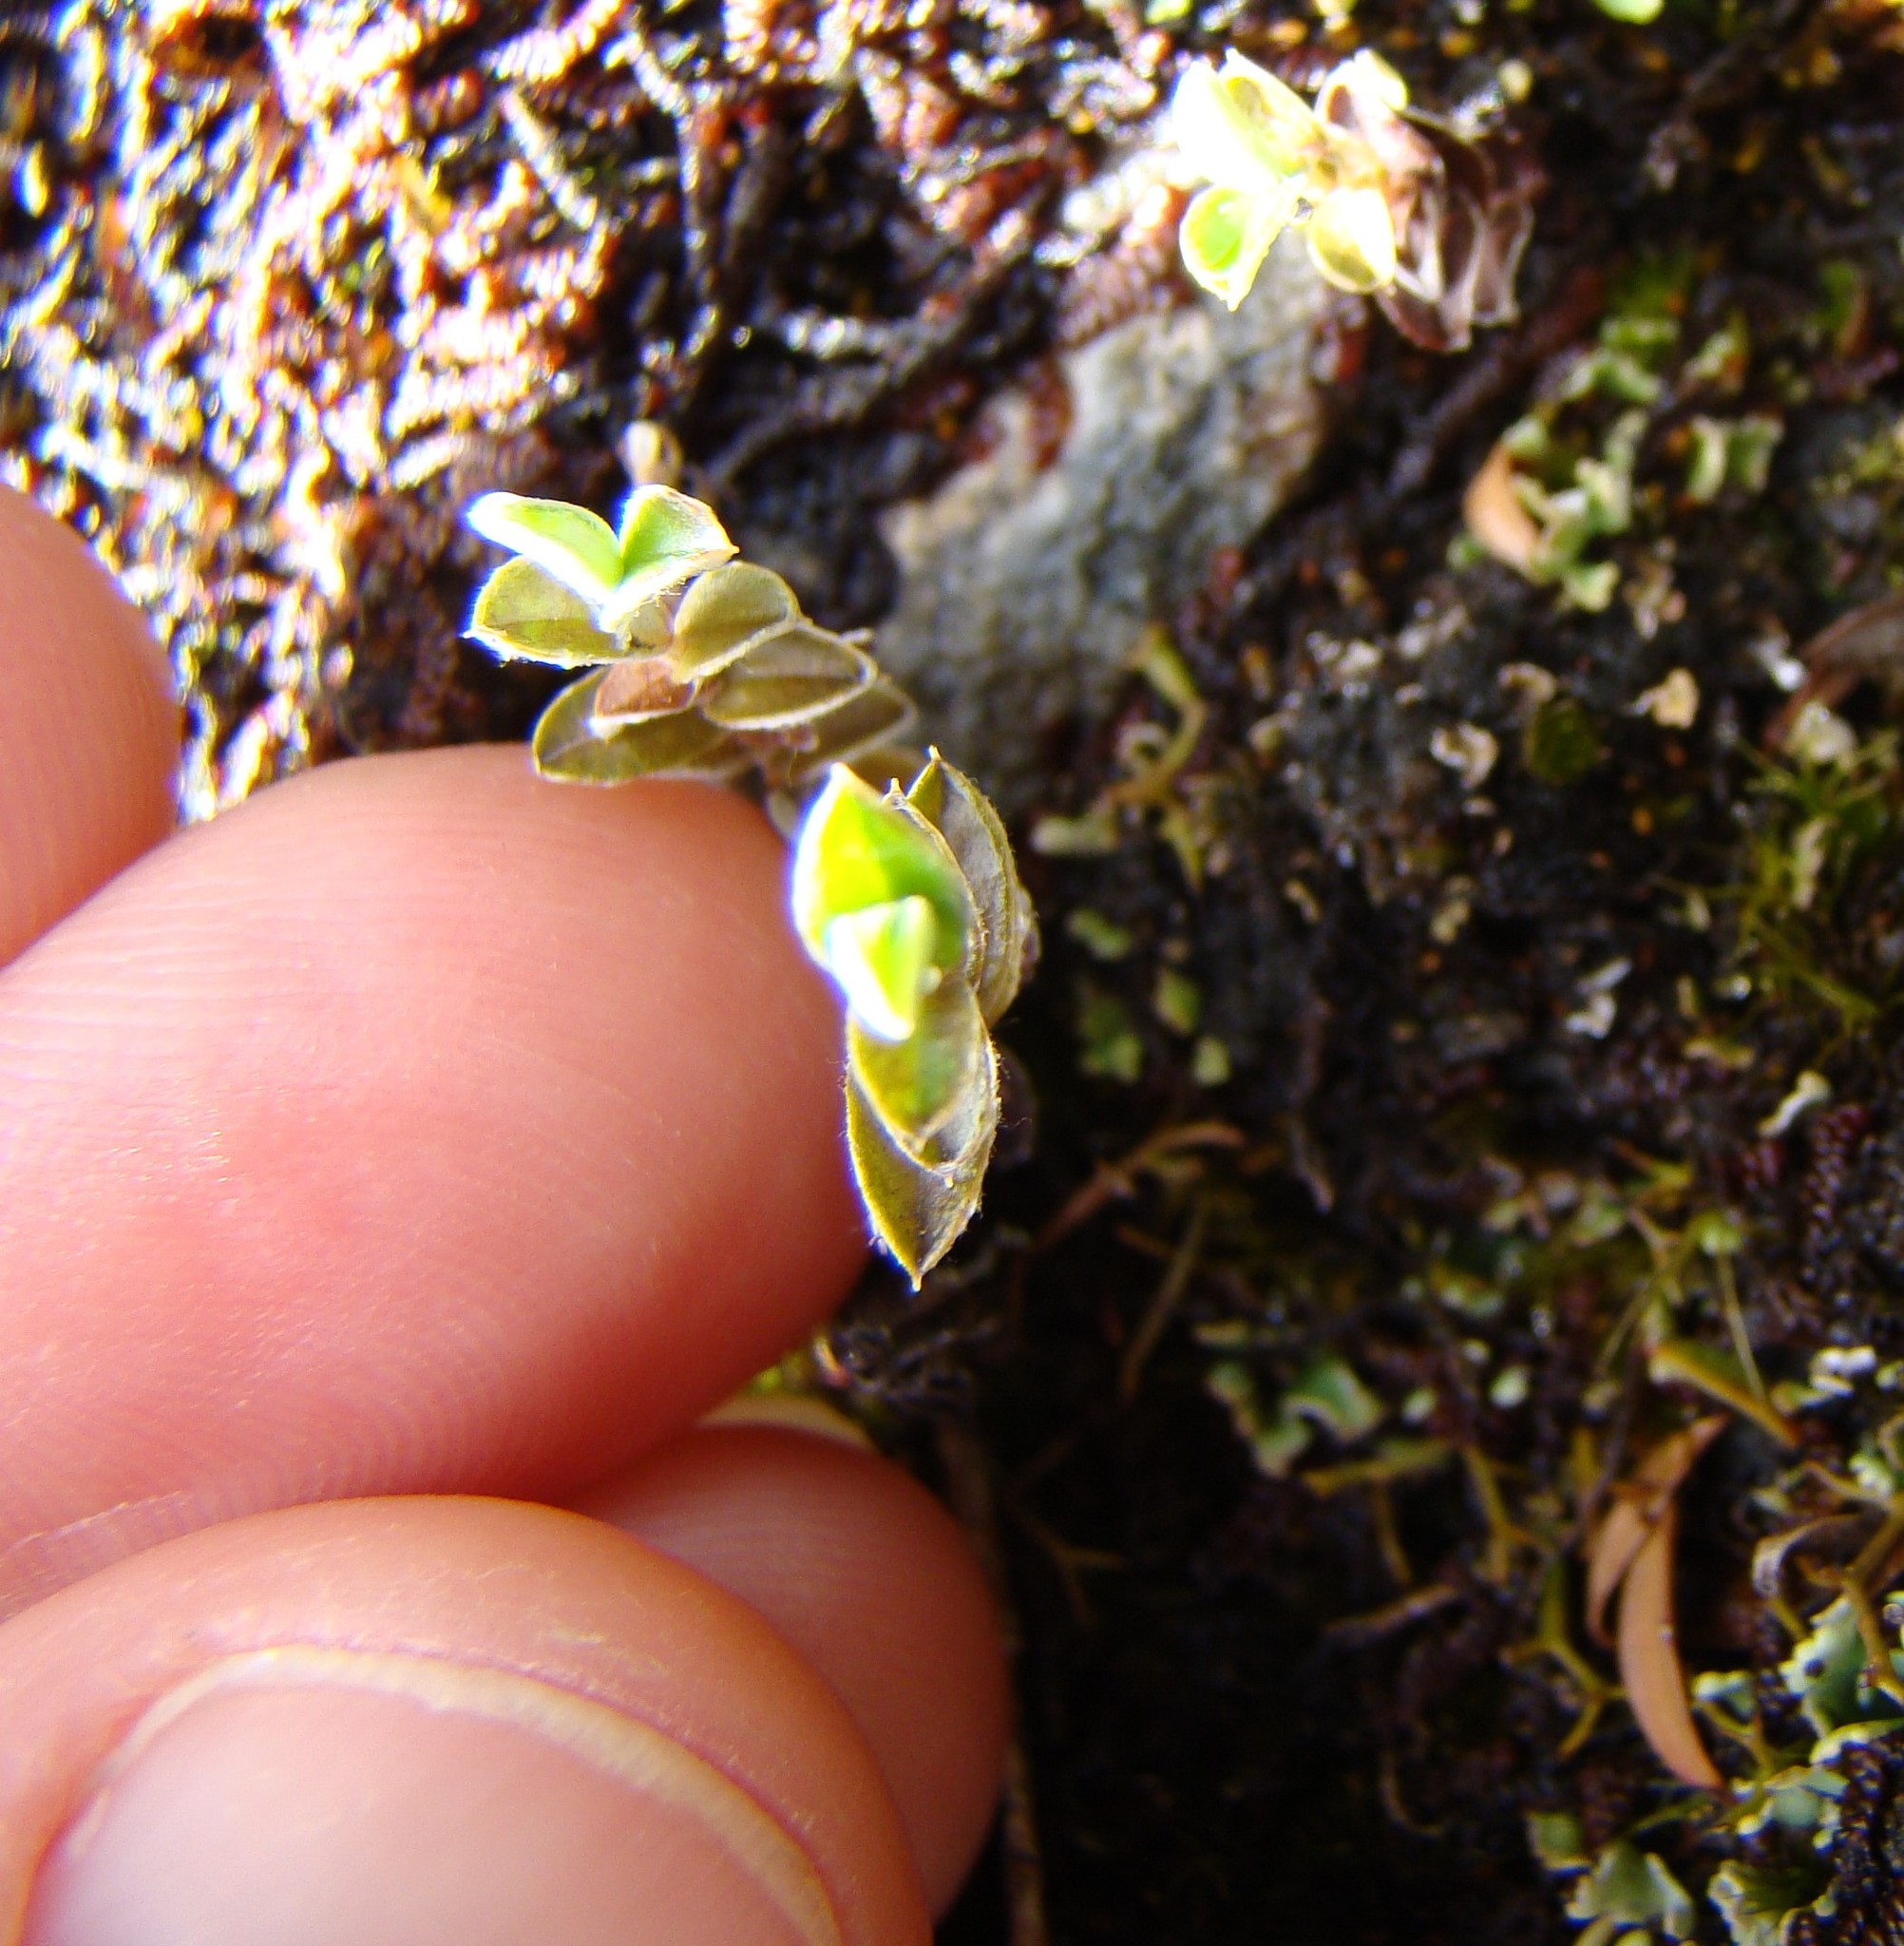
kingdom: Plantae
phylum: Tracheophyta
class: Magnoliopsida
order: Asterales
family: Asteraceae
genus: Helichrysum
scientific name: Helichrysum filicaule
